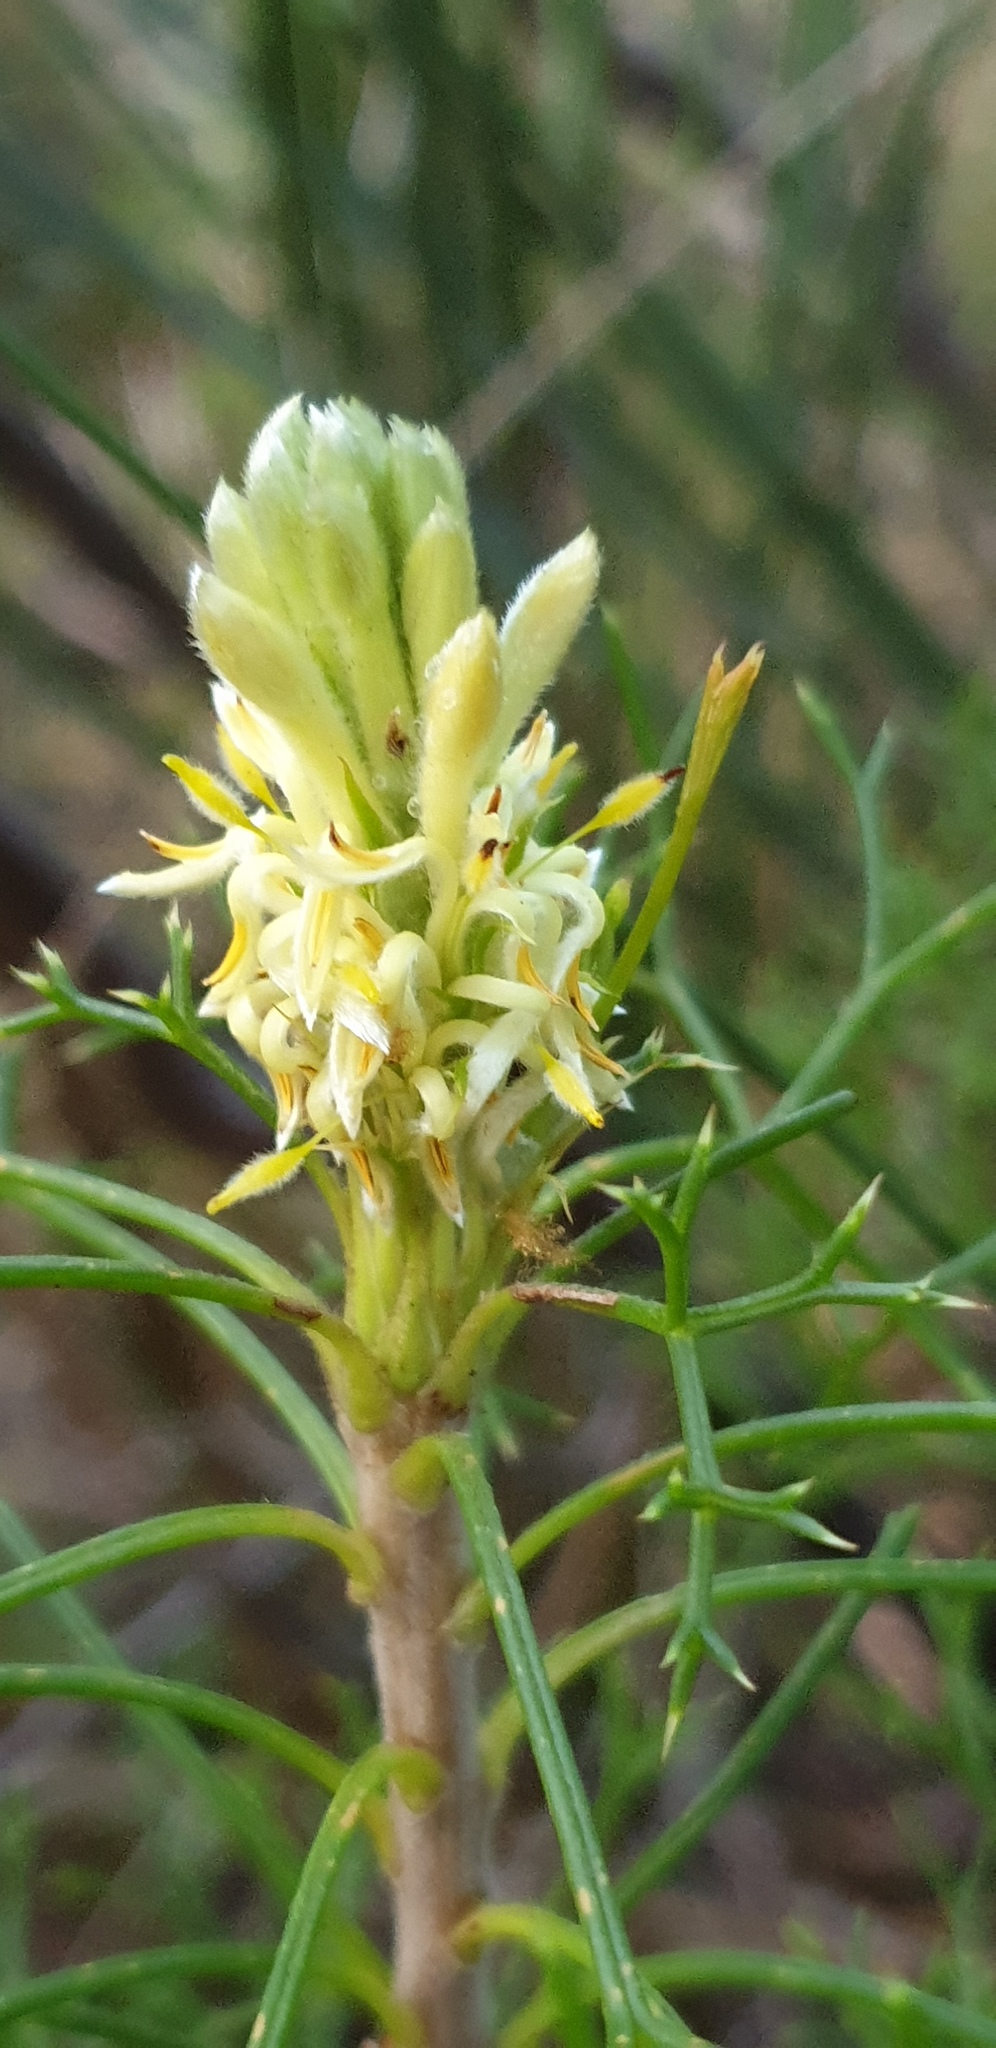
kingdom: Plantae
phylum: Tracheophyta
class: Magnoliopsida
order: Proteales
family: Proteaceae
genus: Petrophile
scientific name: Petrophile multisecta
